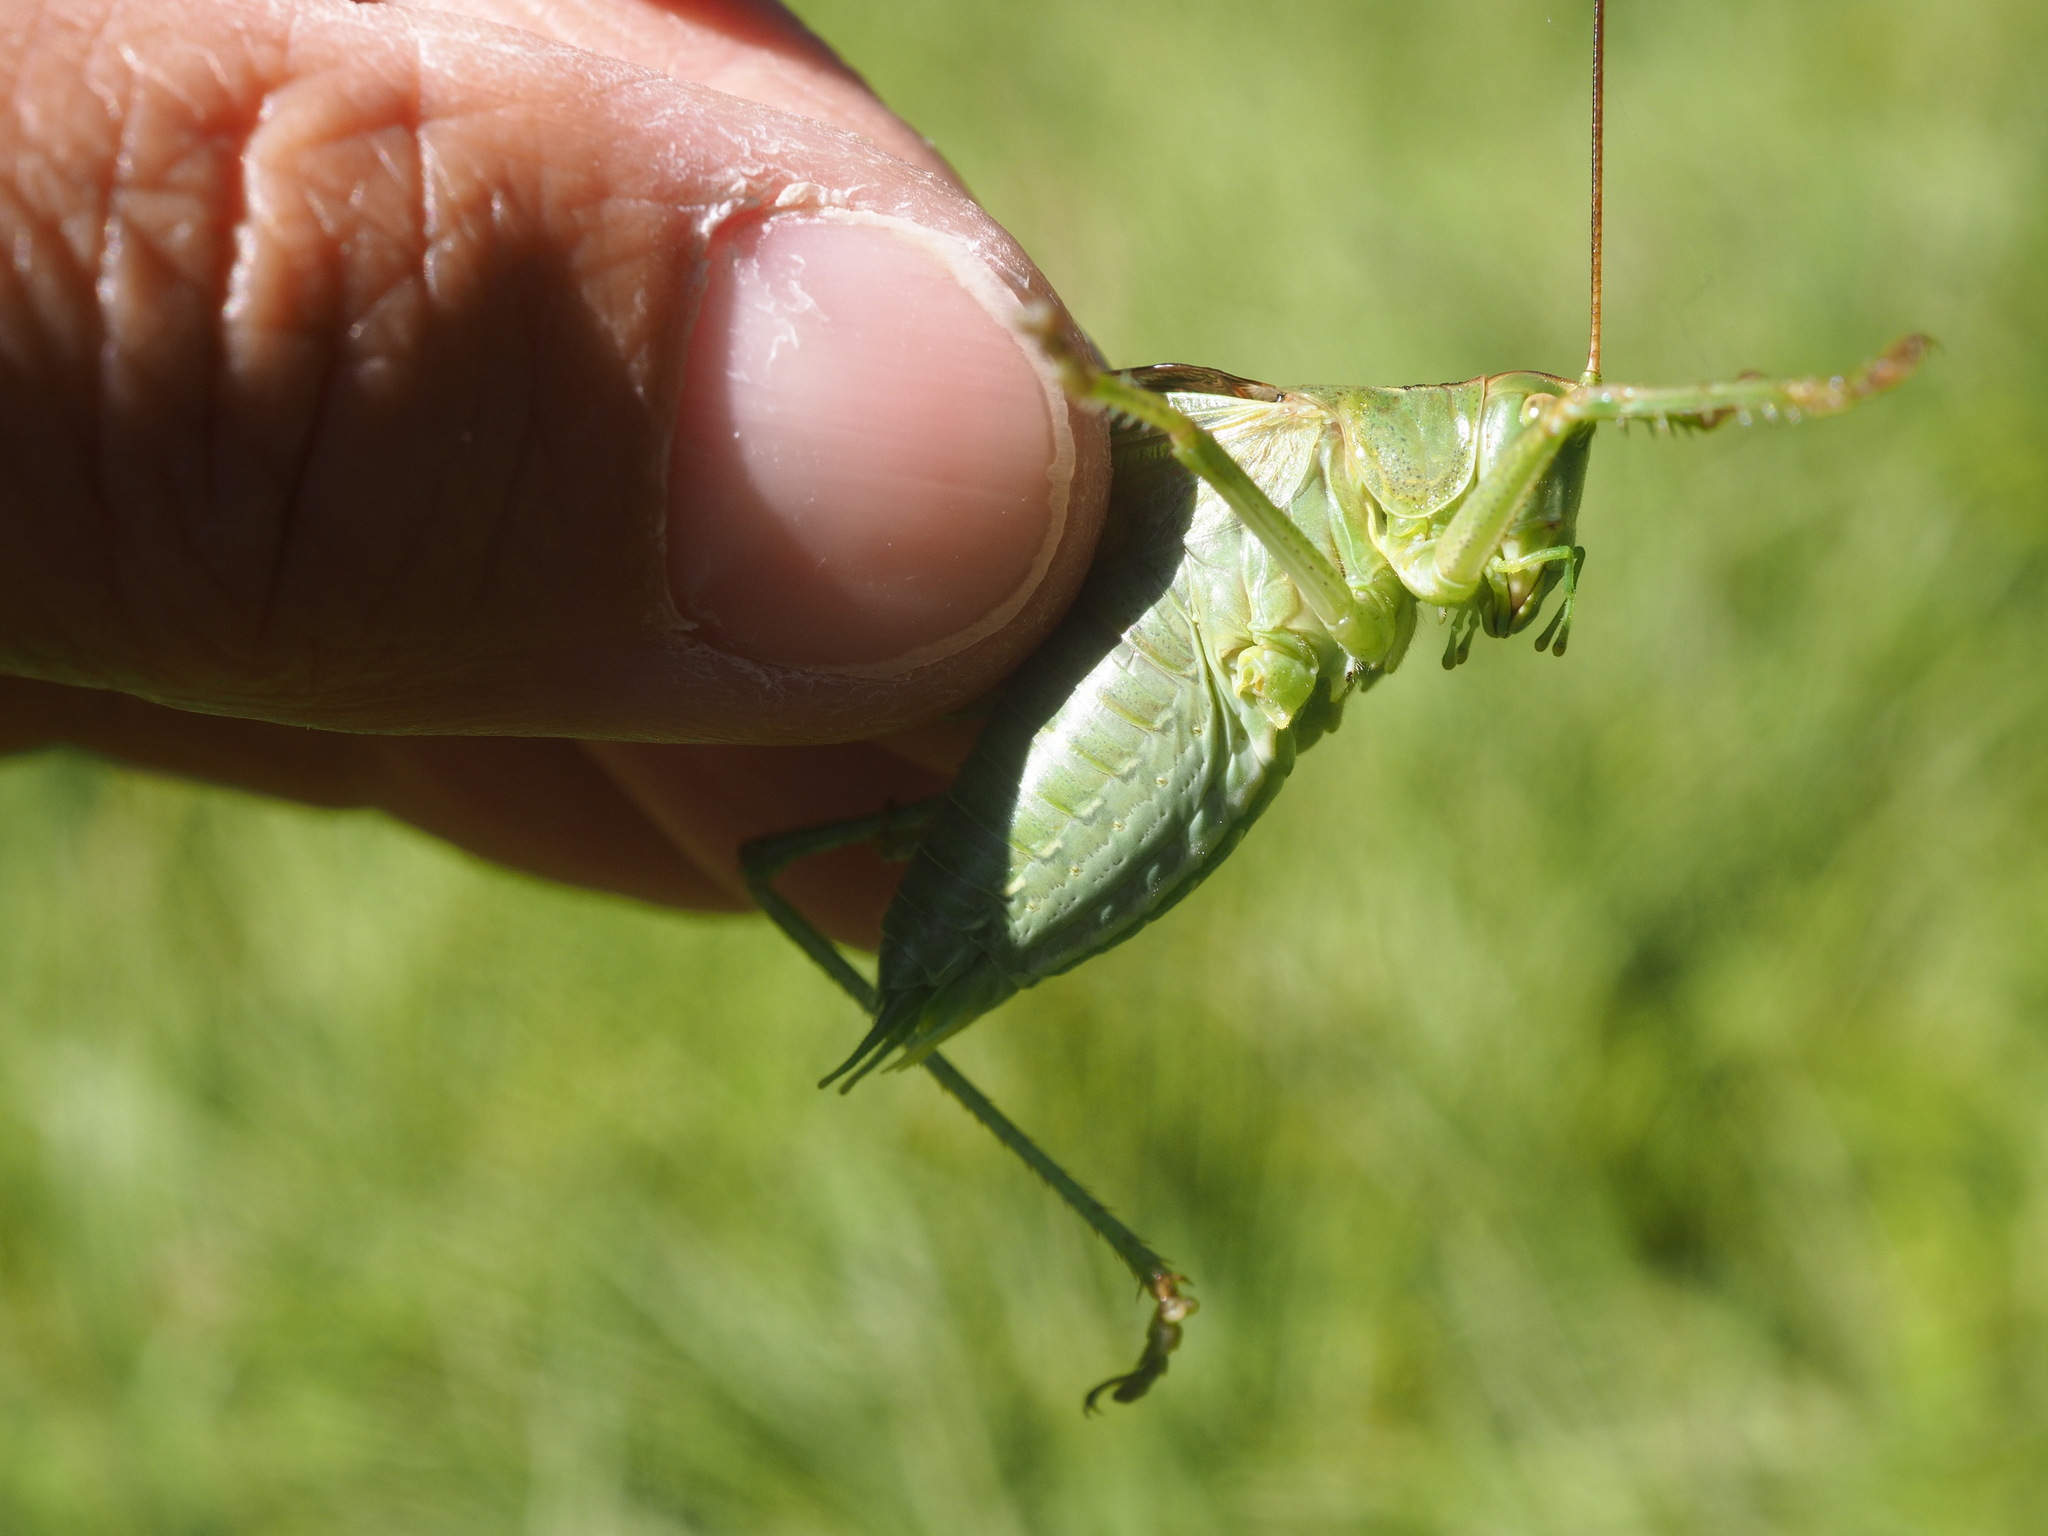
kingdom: Animalia
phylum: Arthropoda
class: Insecta
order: Orthoptera
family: Tettigoniidae
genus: Tettigonia
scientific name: Tettigonia viridissima
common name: Great green bush-cricket
